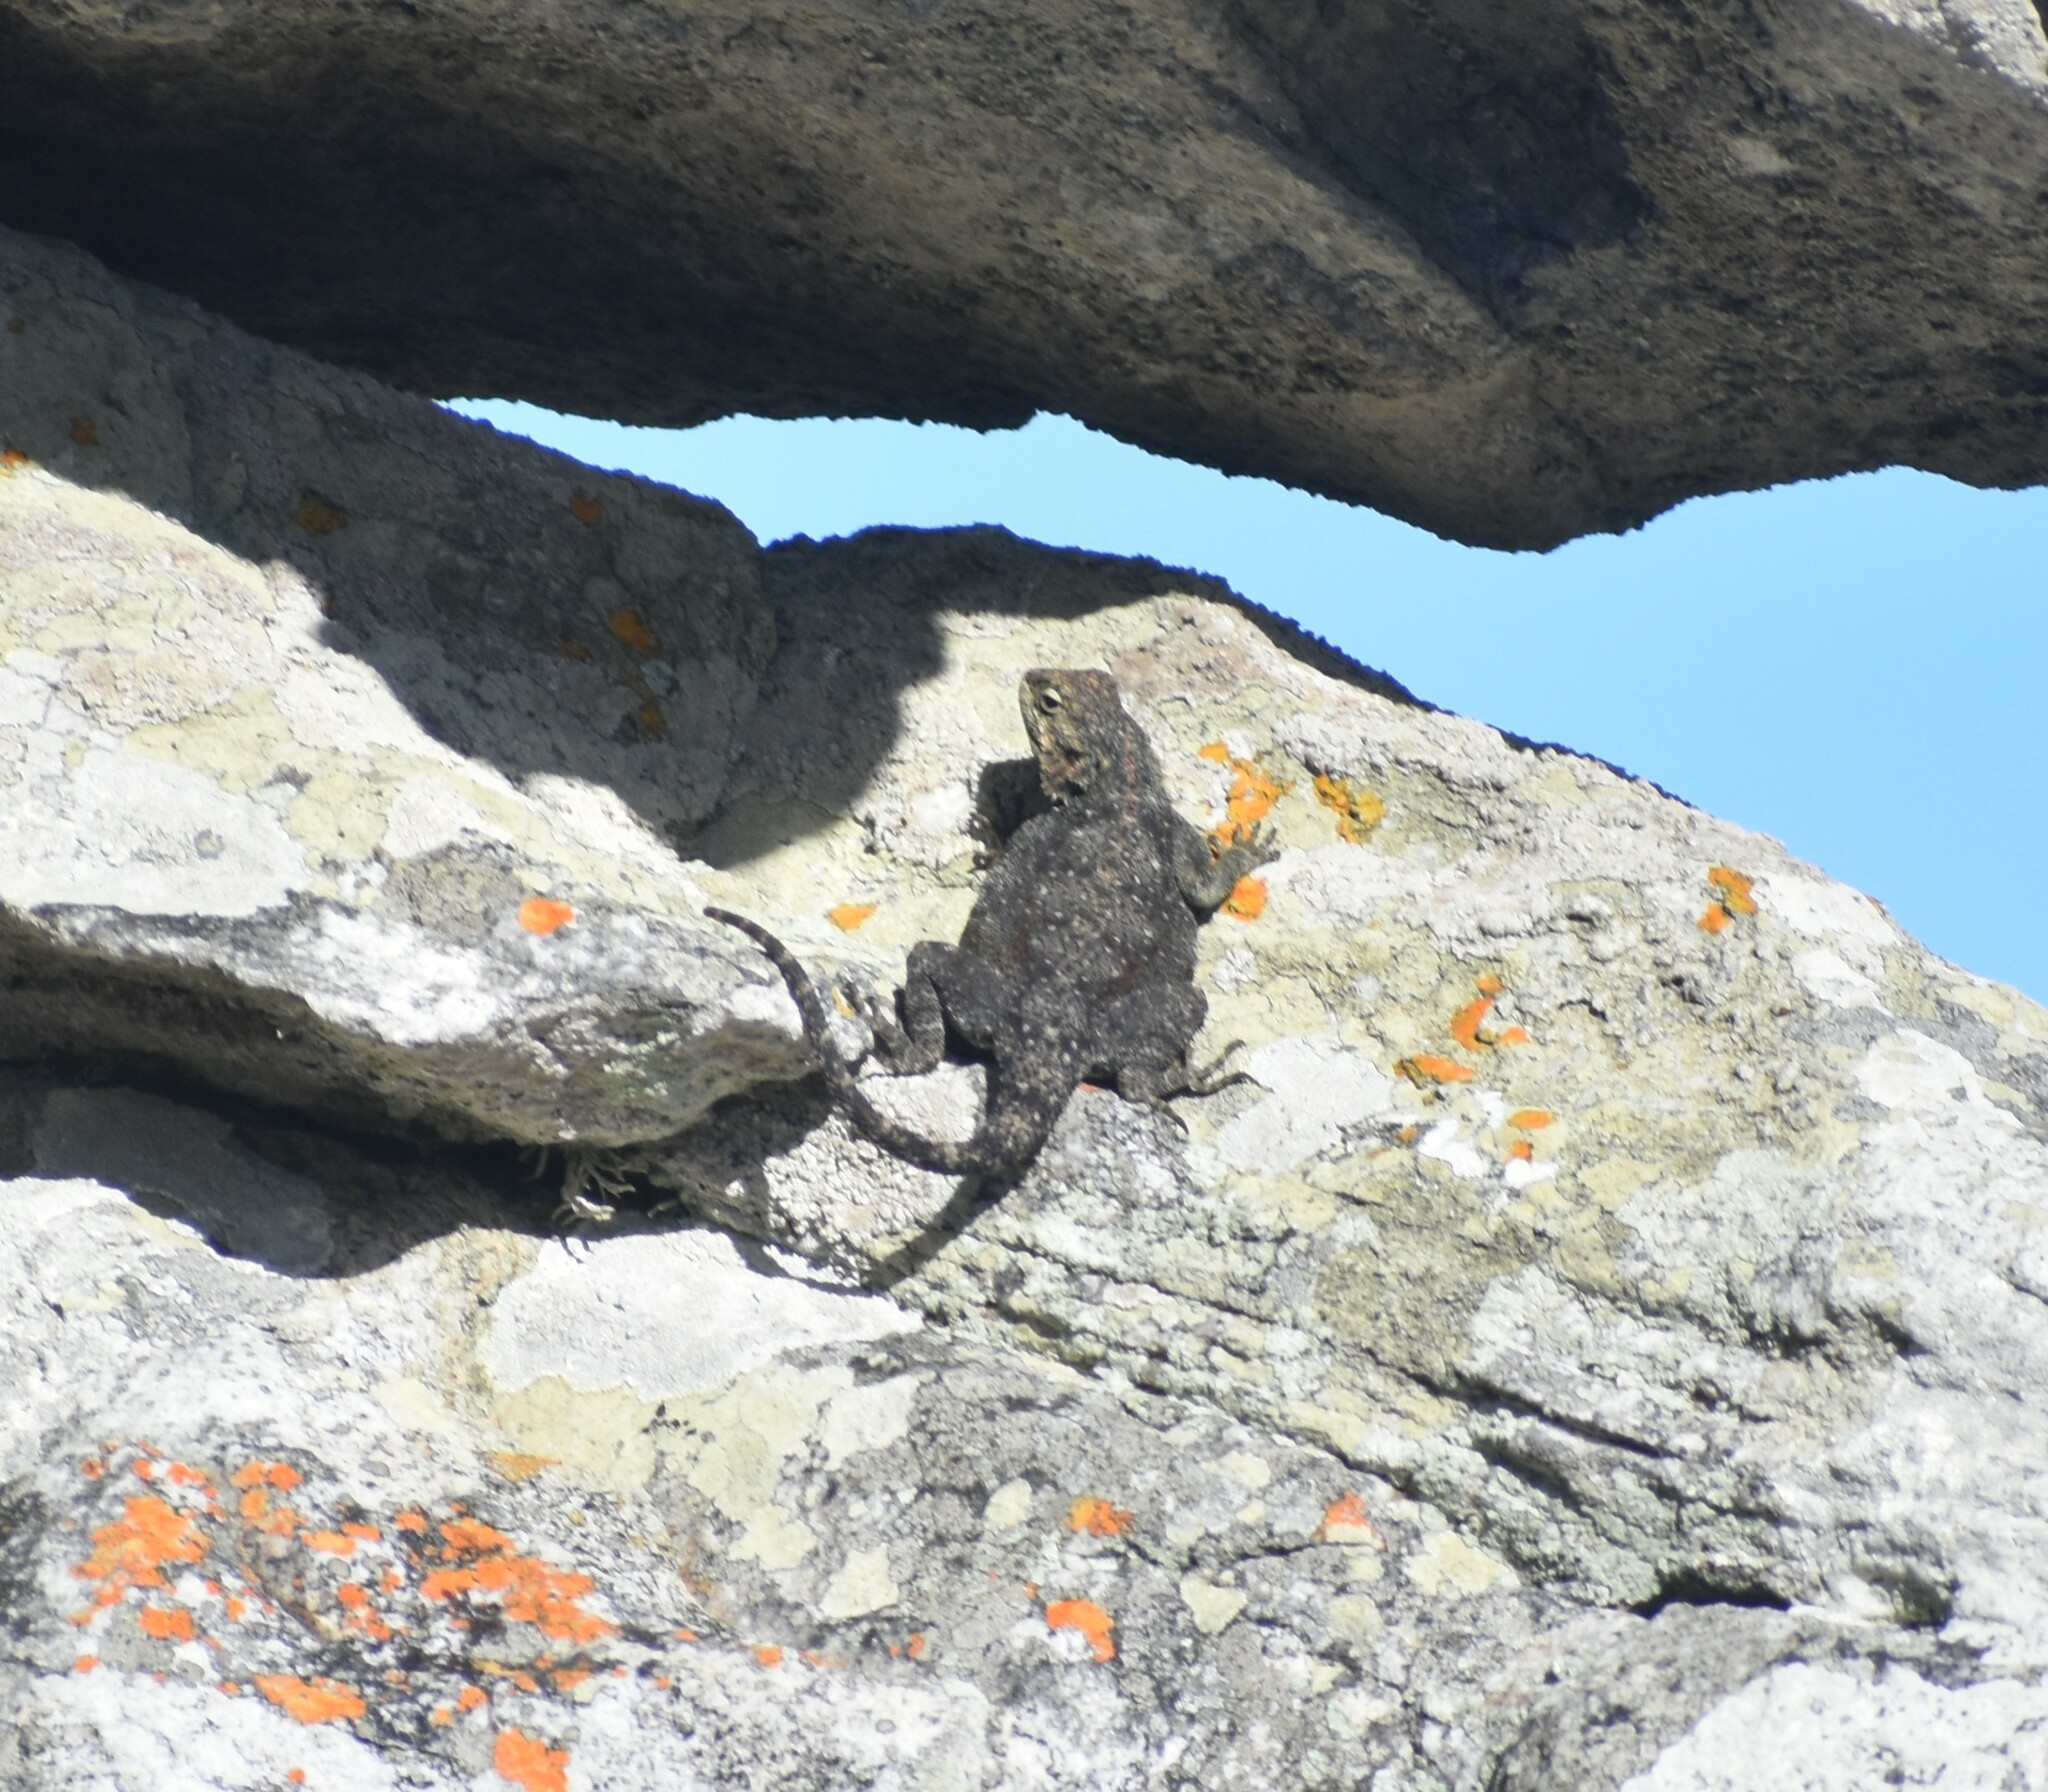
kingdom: Animalia
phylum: Chordata
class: Squamata
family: Agamidae
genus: Agama
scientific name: Agama atra
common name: Southern african rock agama
